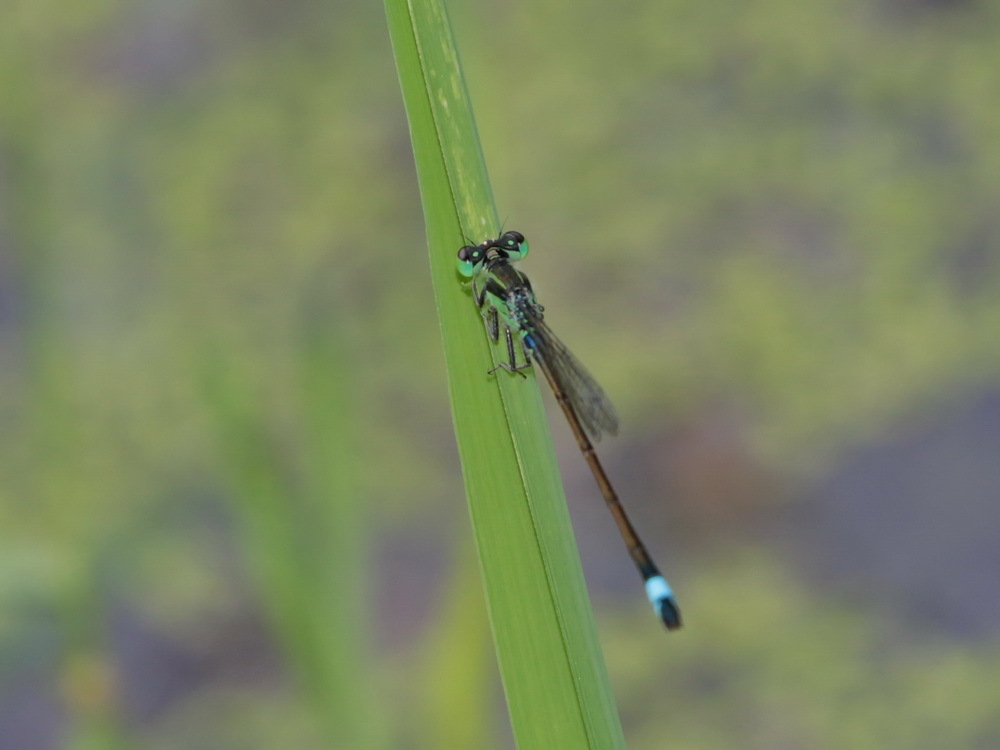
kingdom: Animalia
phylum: Arthropoda
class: Insecta
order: Odonata
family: Coenagrionidae
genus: Ischnura
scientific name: Ischnura senegalensis
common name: Tropical bluetail
